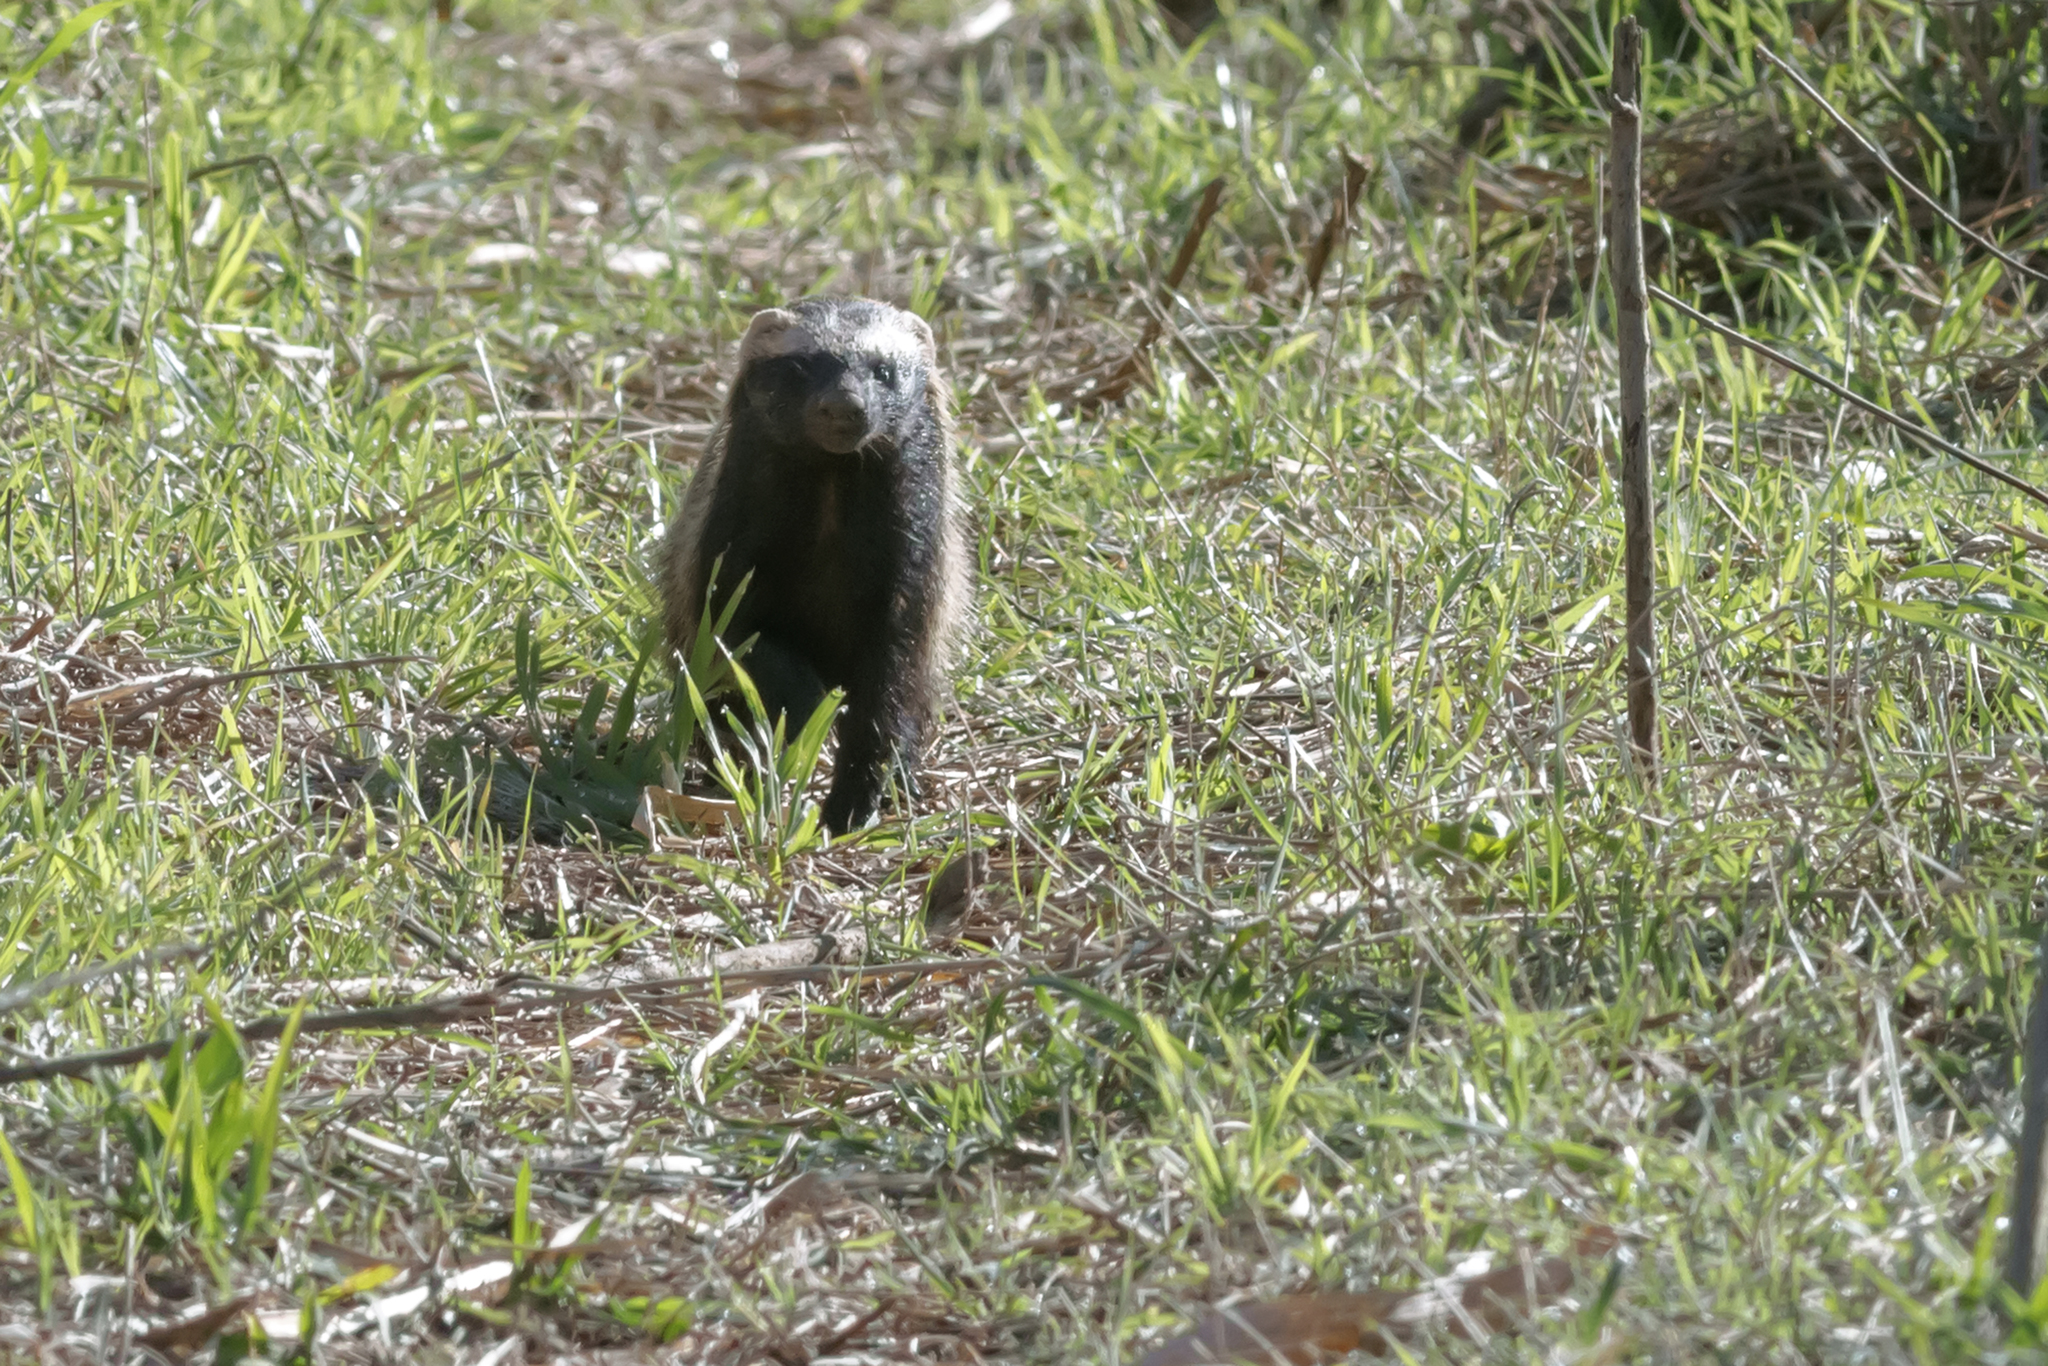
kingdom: Animalia
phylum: Chordata
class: Mammalia
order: Carnivora
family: Mustelidae
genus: Galictis
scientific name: Galictis cuja
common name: Lesser grison
